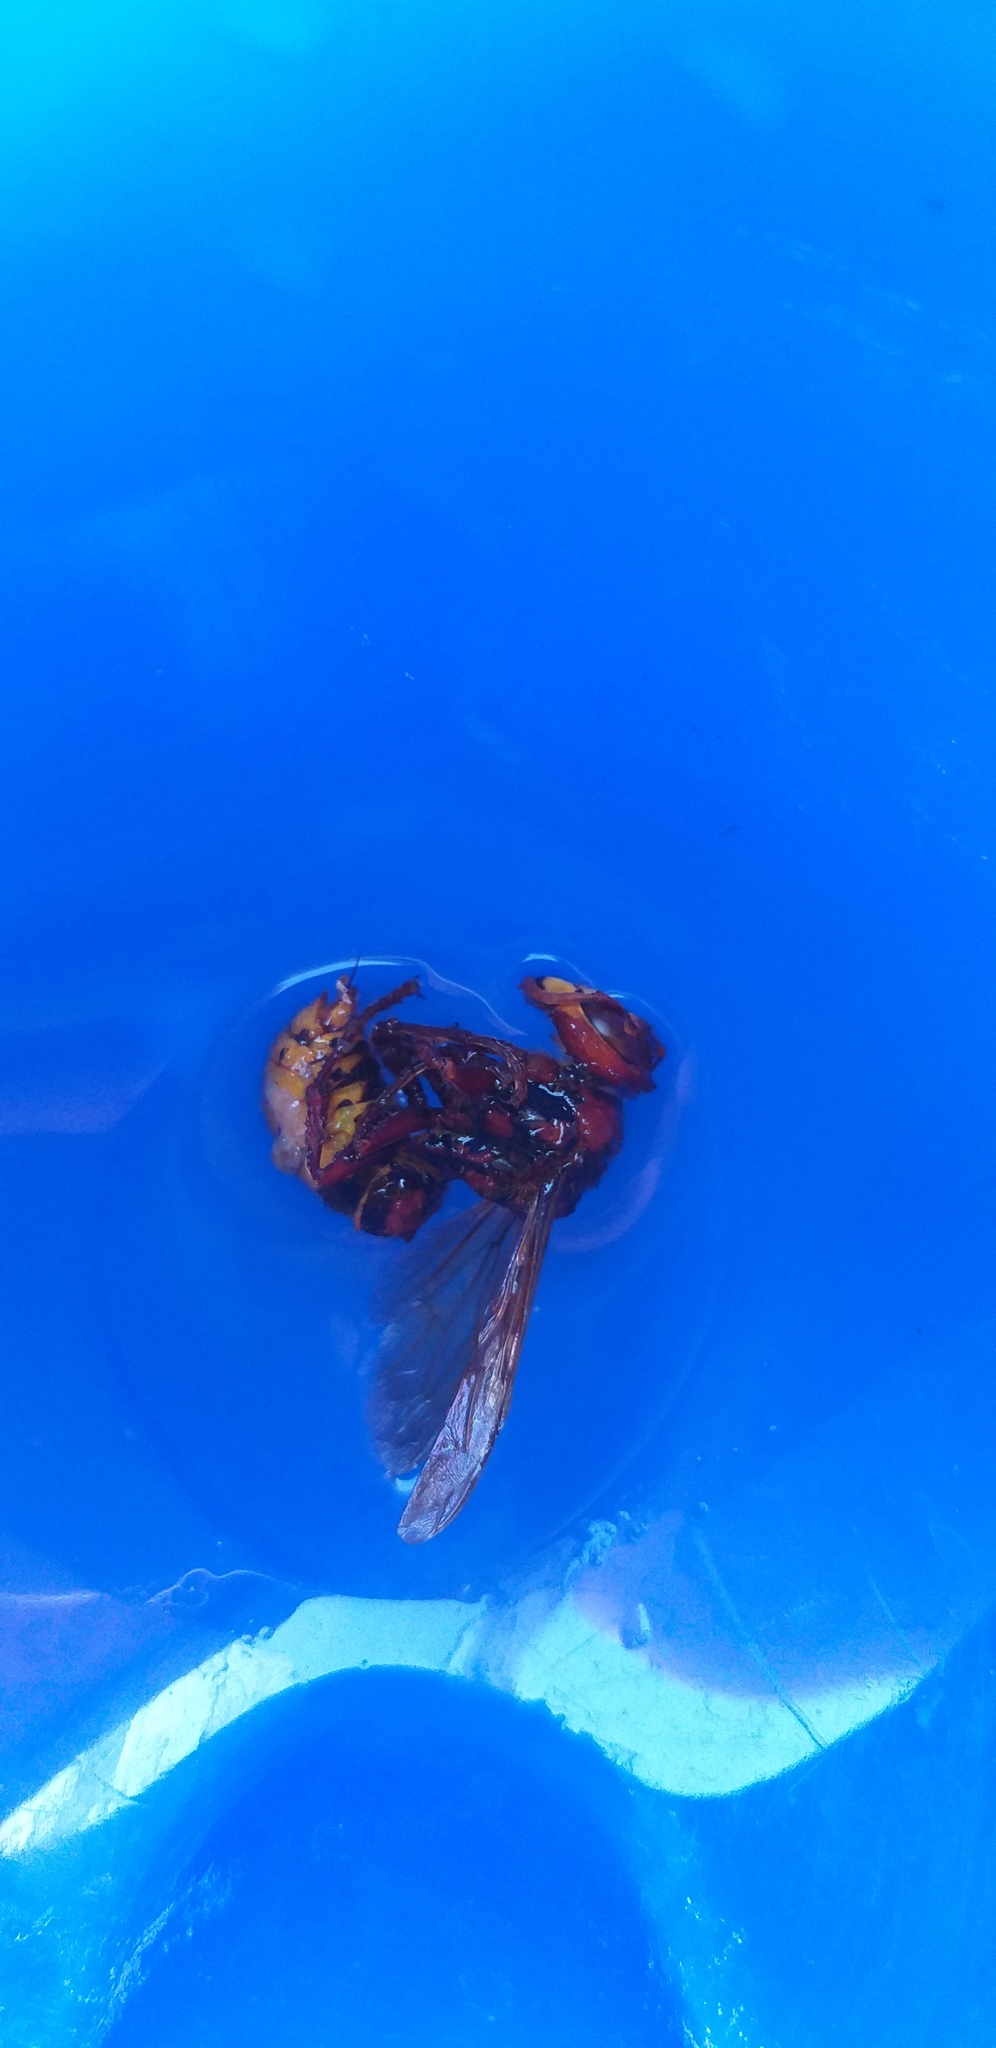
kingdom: Animalia
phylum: Arthropoda
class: Insecta
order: Hymenoptera
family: Vespidae
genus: Vespa
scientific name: Vespa crabro
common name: Hornet
